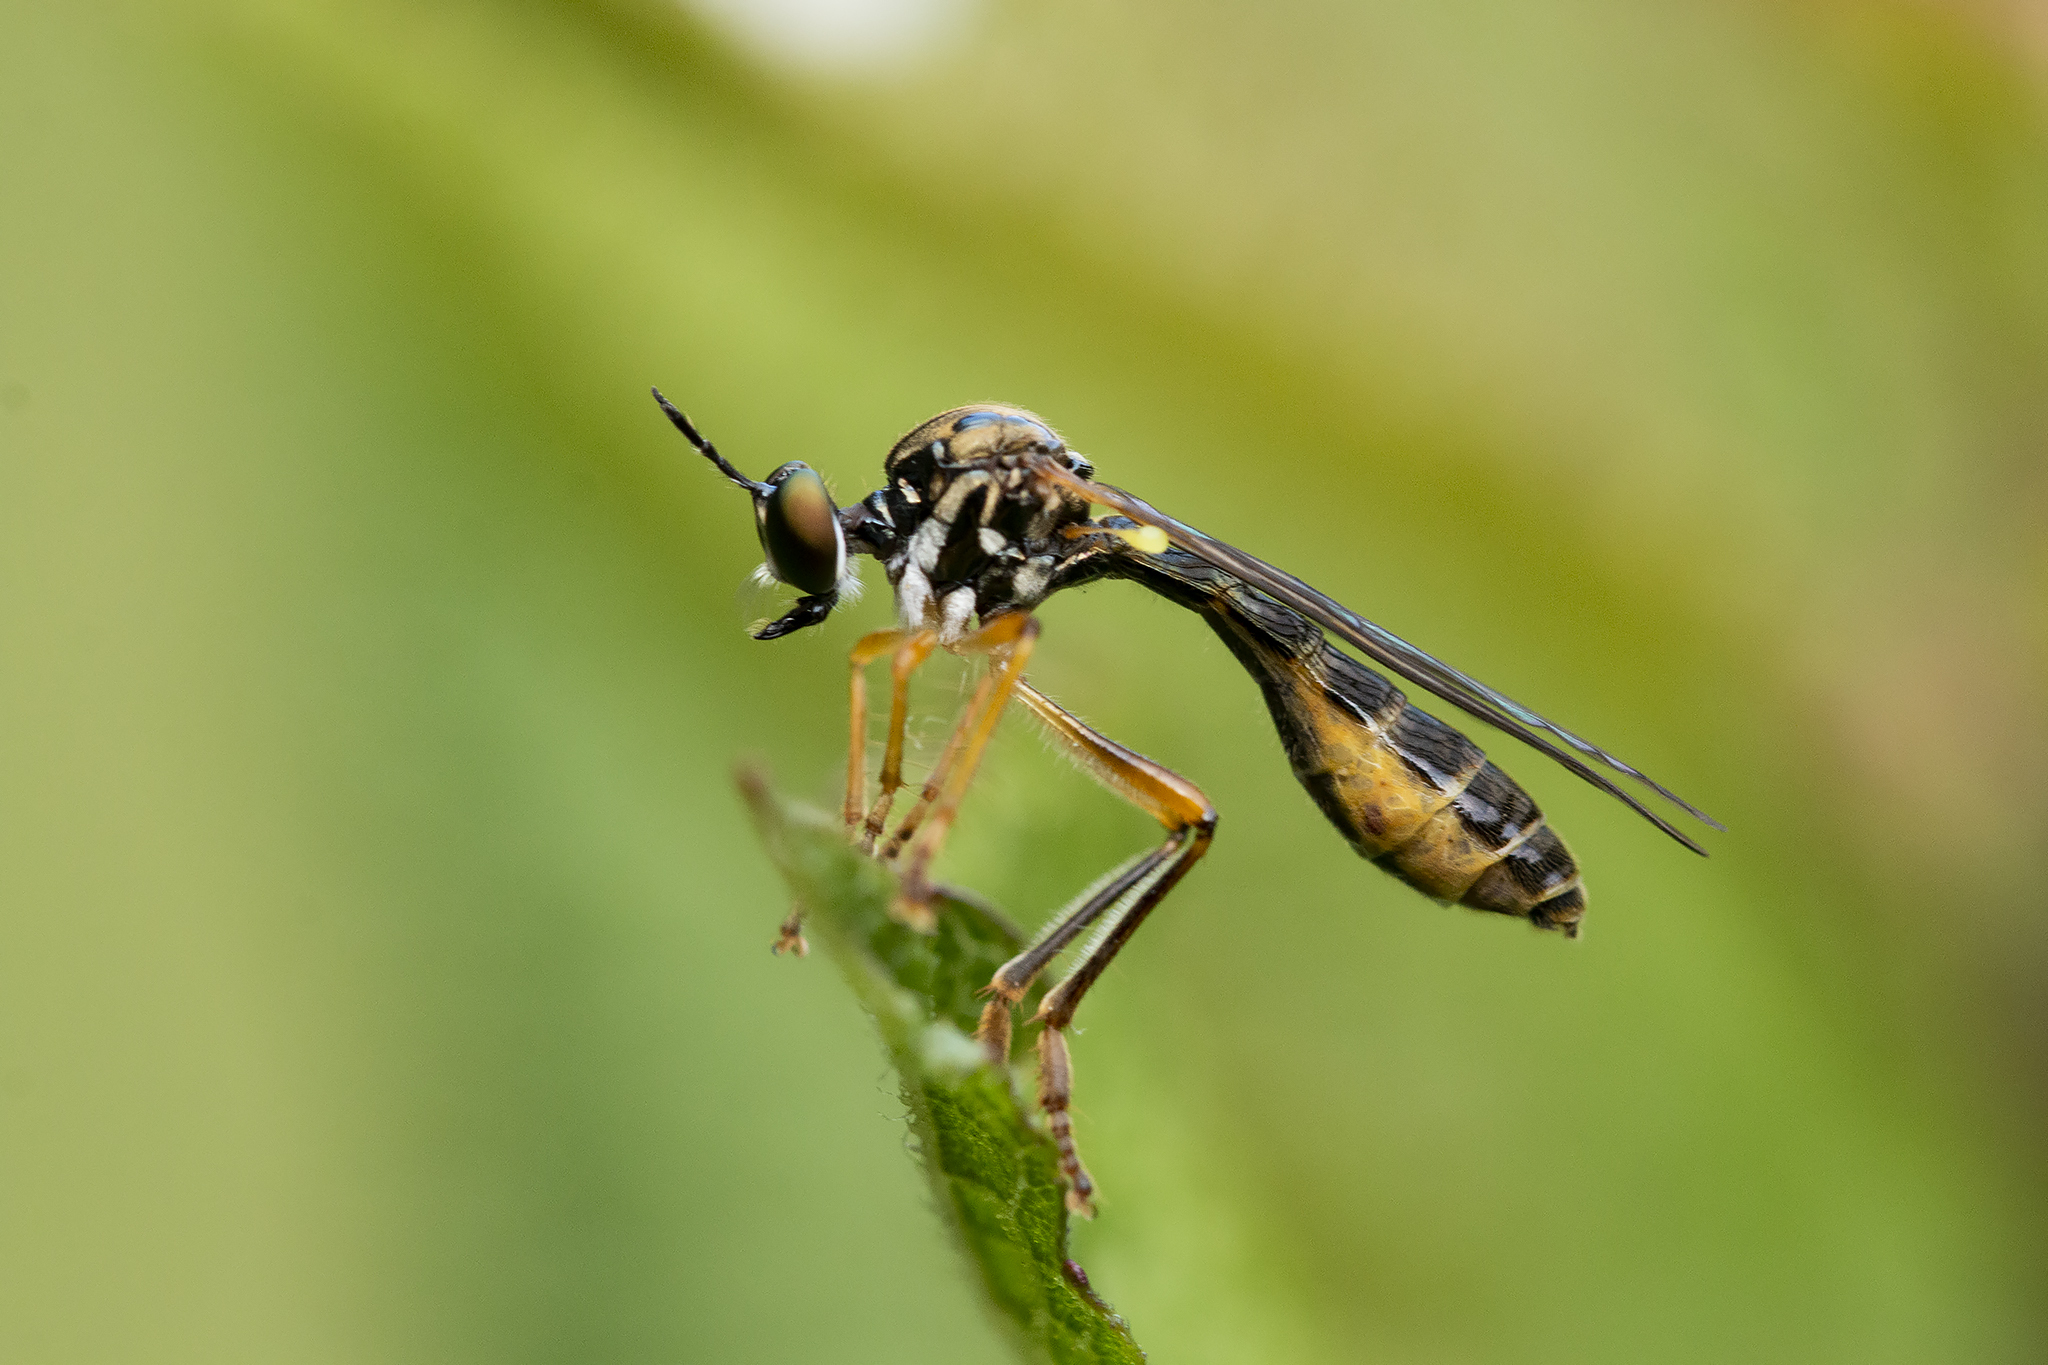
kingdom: Animalia
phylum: Arthropoda
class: Insecta
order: Diptera
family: Asilidae
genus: Dioctria
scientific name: Dioctria linearis
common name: Small yellow-legged robberfly
